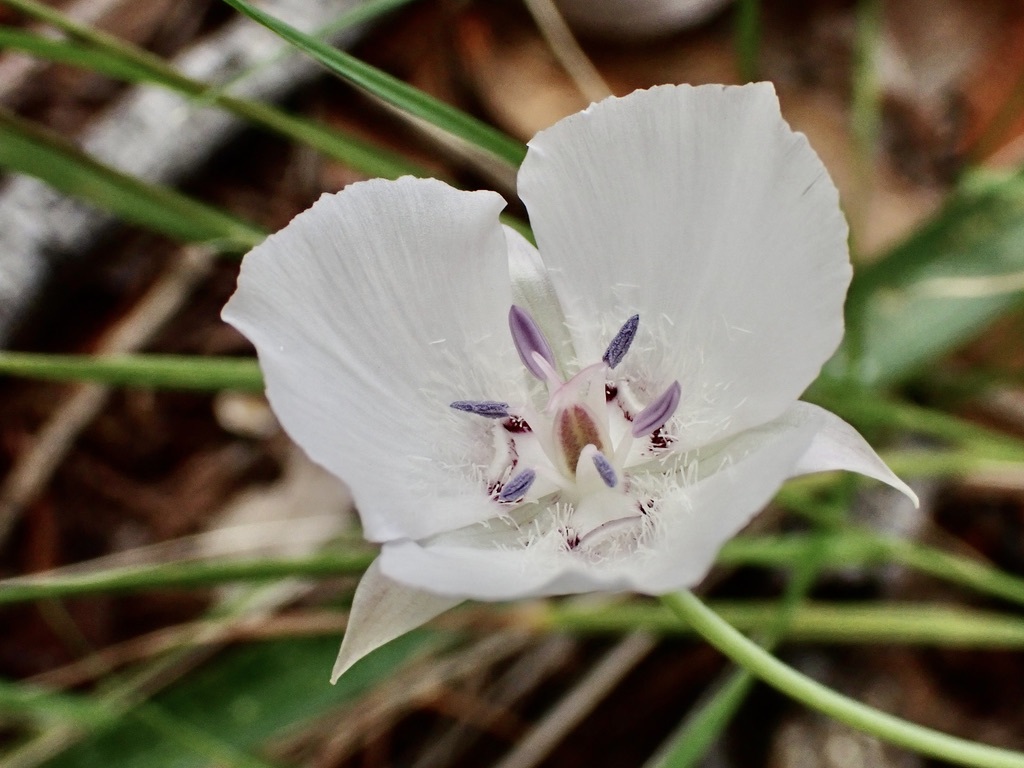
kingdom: Plantae
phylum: Tracheophyta
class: Liliopsida
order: Liliales
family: Liliaceae
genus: Calochortus
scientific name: Calochortus umbellatus
